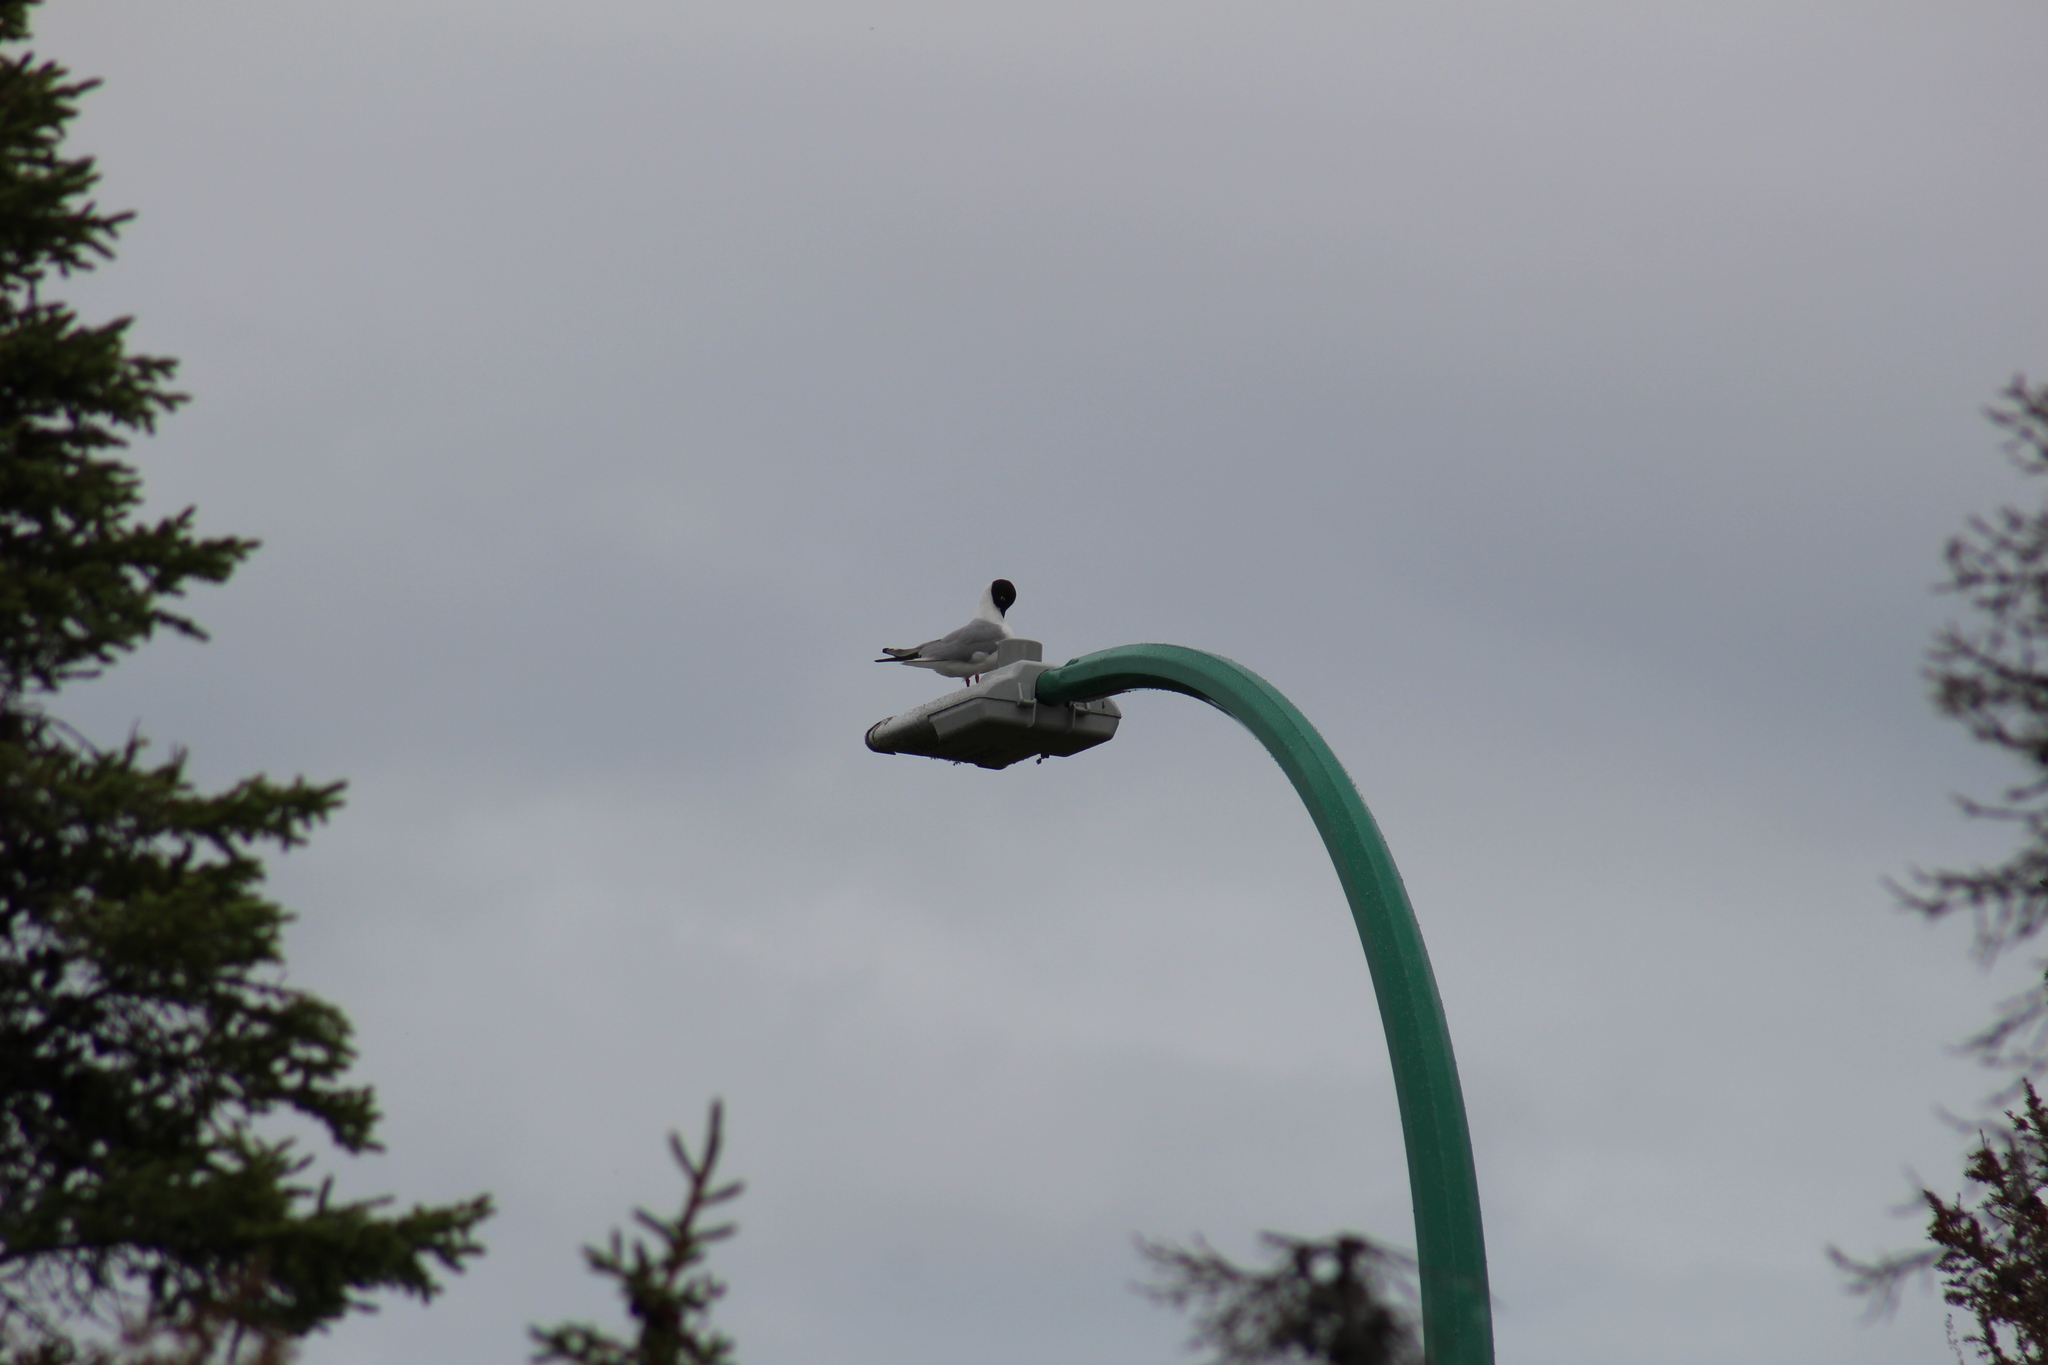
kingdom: Animalia
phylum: Chordata
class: Aves
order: Charadriiformes
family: Laridae
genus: Chroicocephalus
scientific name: Chroicocephalus philadelphia
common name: Bonaparte's gull
